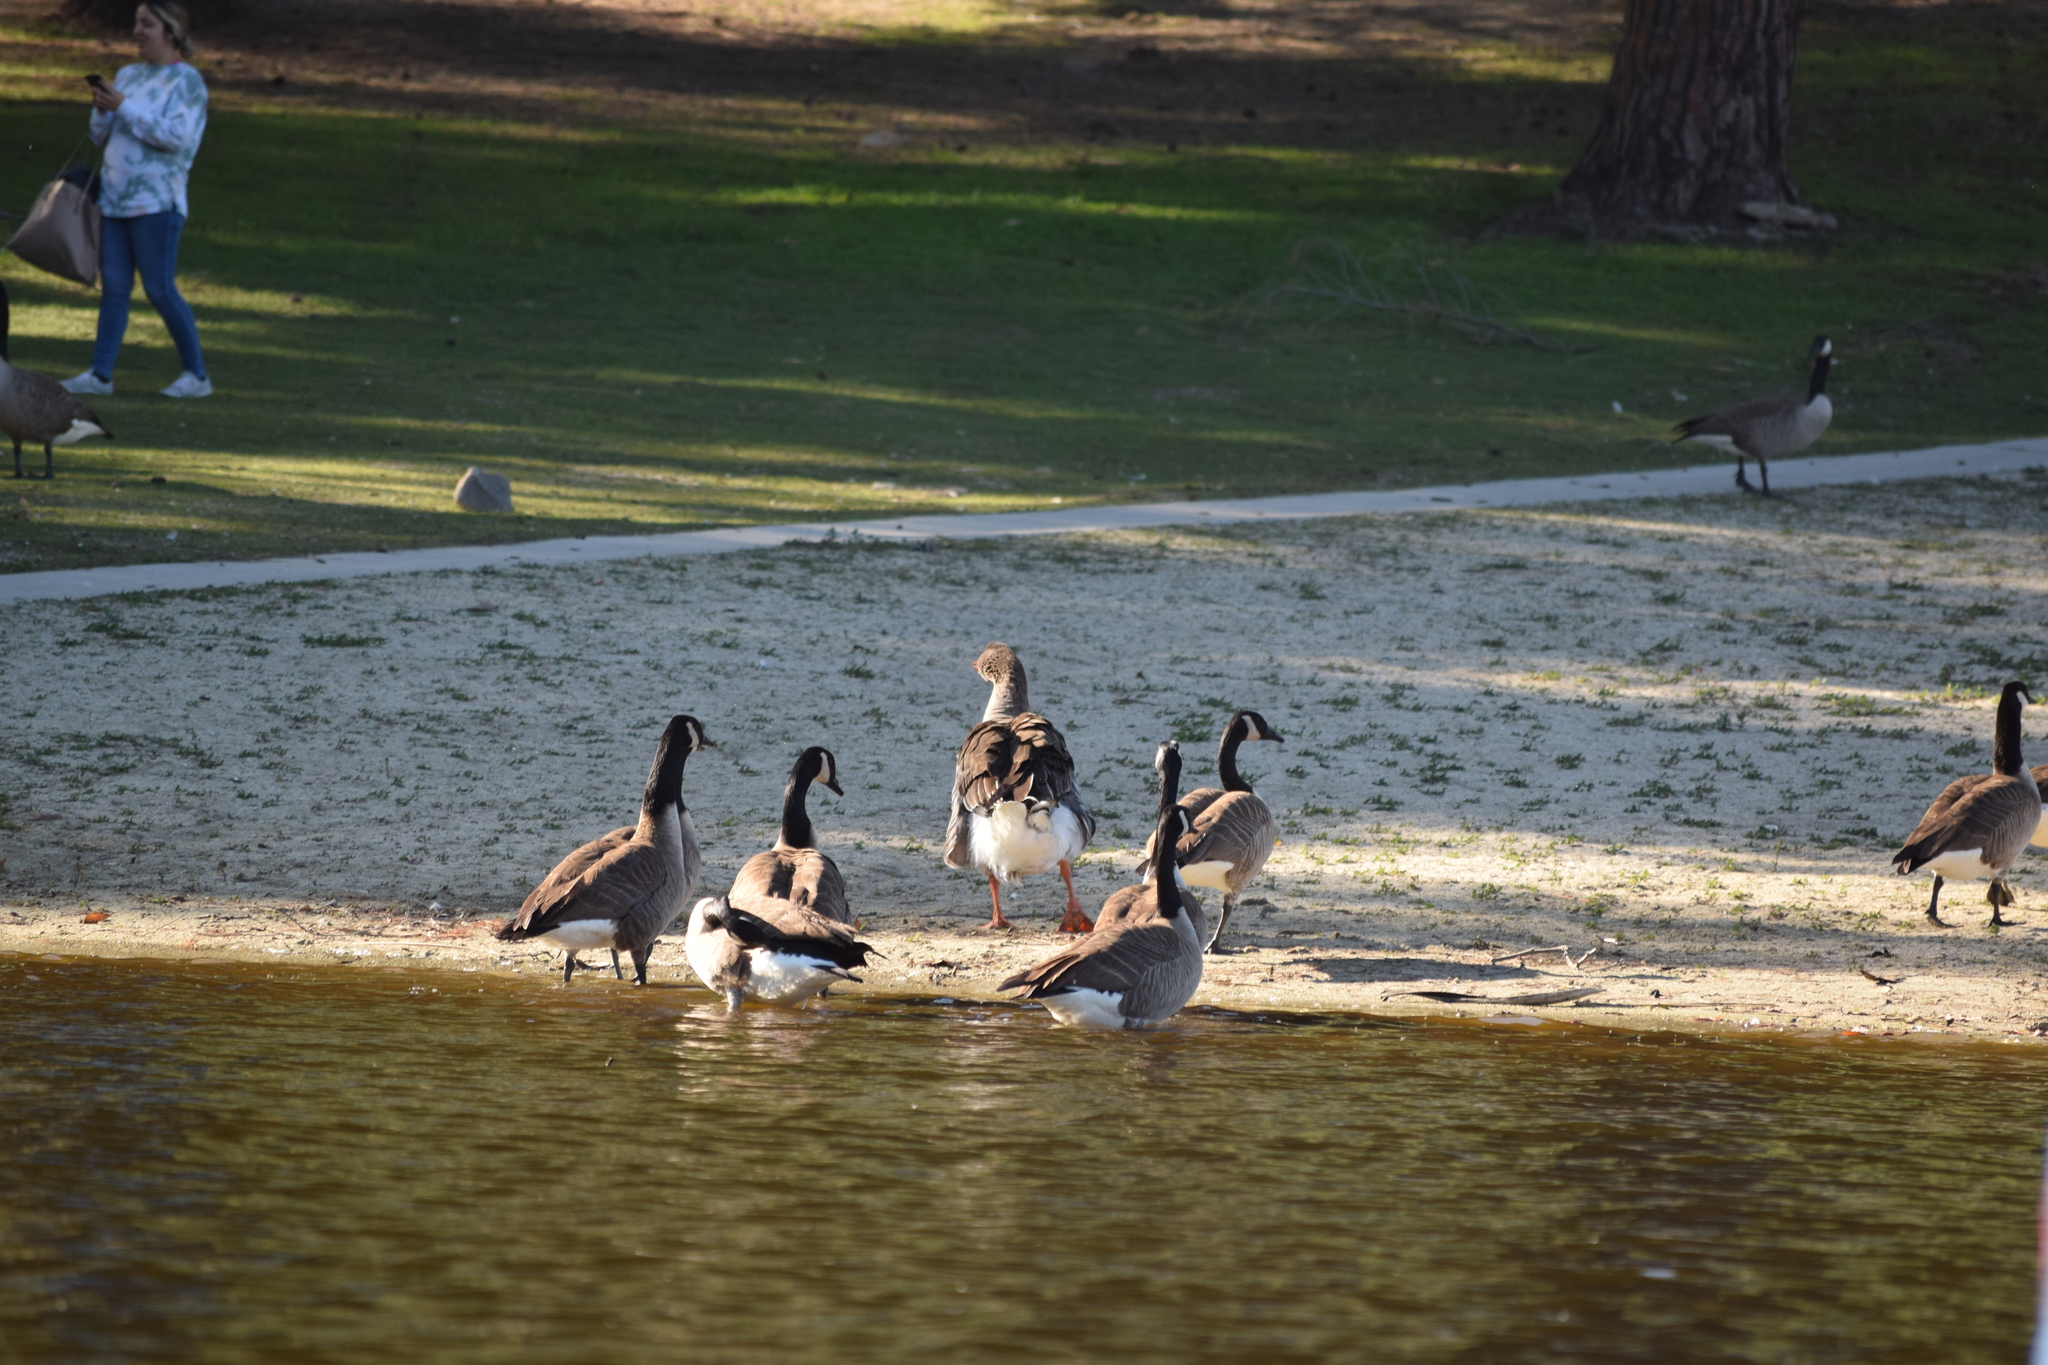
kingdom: Animalia
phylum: Chordata
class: Aves
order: Anseriformes
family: Anatidae
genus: Anser
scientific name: Anser anser
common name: Greylag goose
